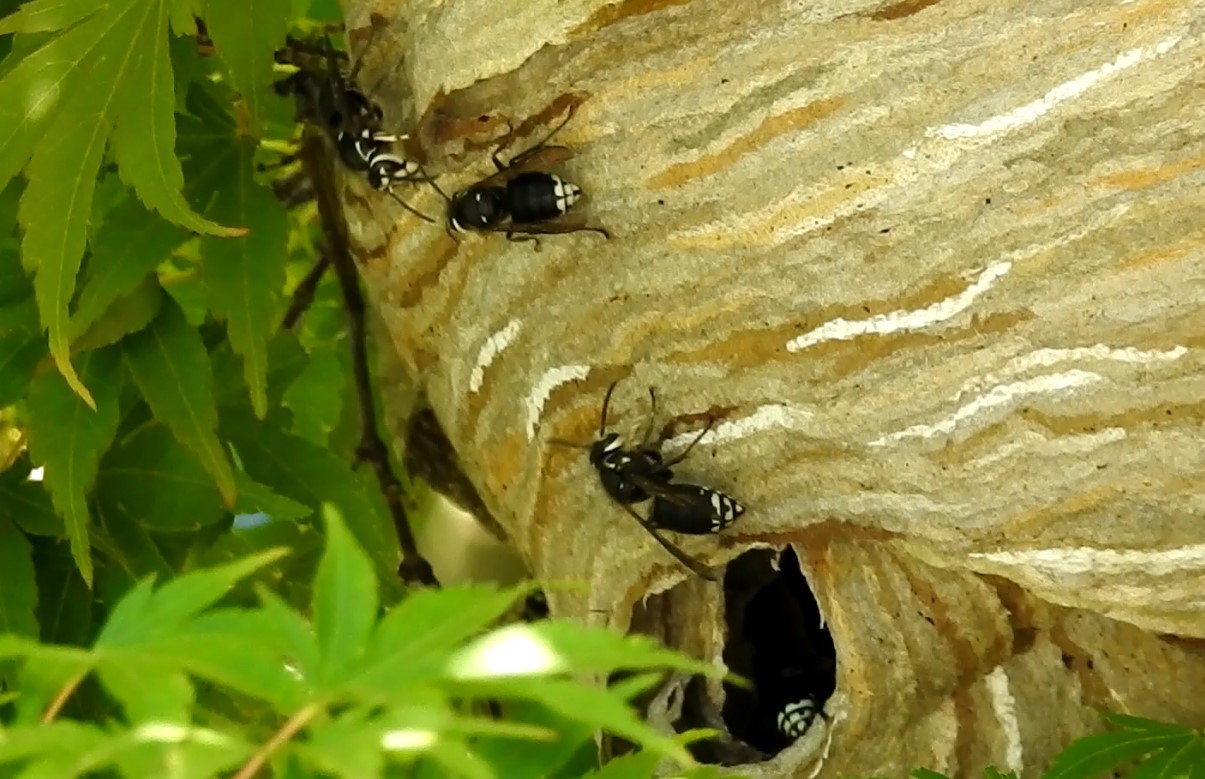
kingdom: Animalia
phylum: Arthropoda
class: Insecta
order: Hymenoptera
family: Vespidae
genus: Dolichovespula
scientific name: Dolichovespula maculata
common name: Bald-faced hornet
